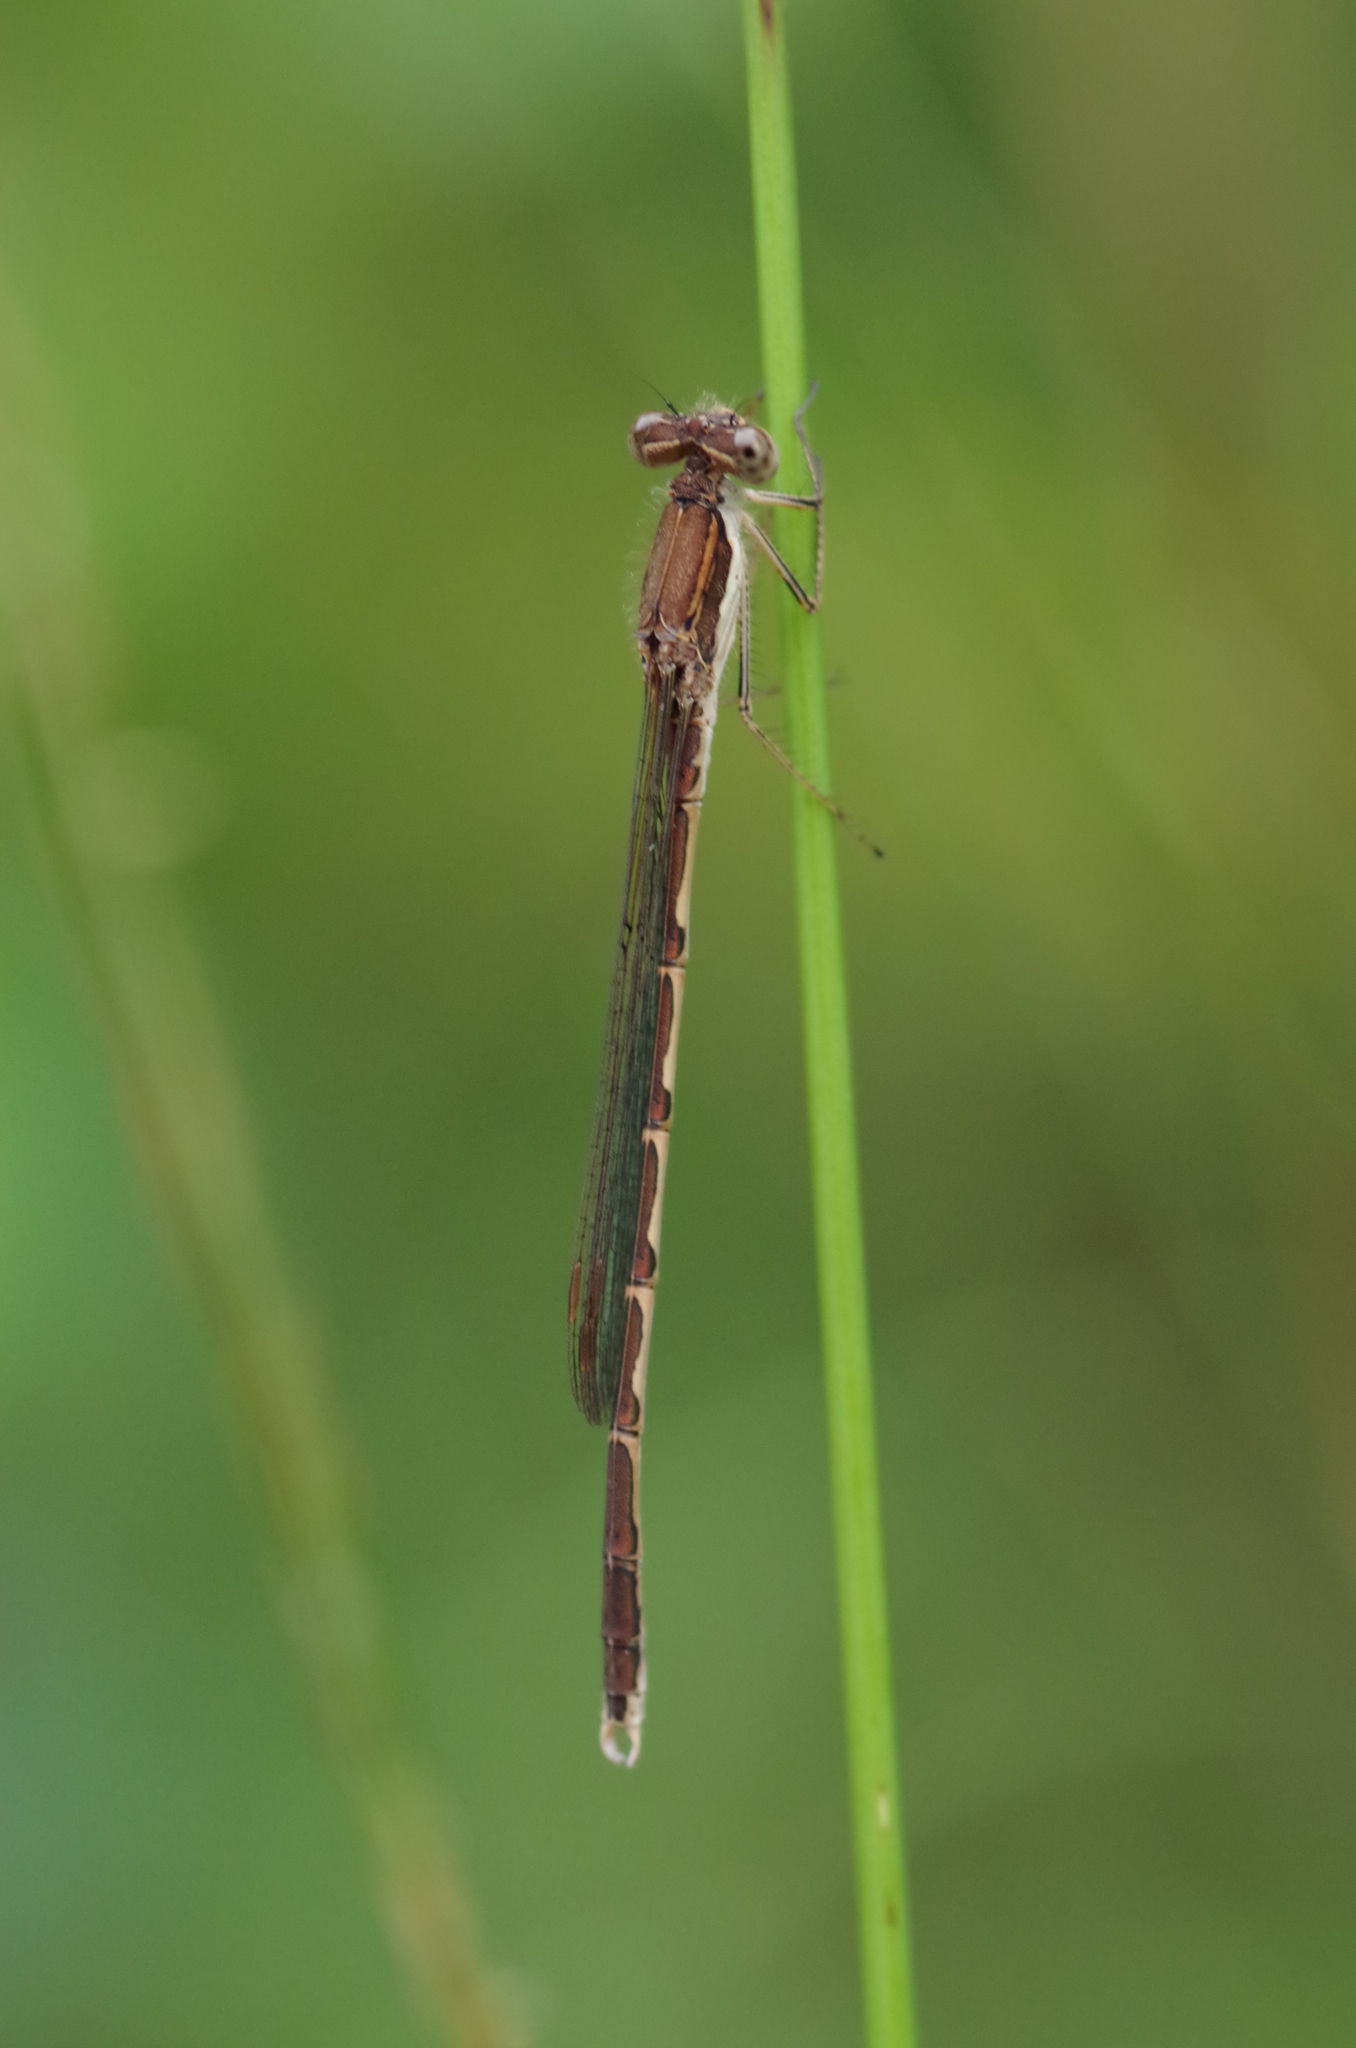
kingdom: Animalia
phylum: Arthropoda
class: Insecta
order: Odonata
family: Lestidae
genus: Sympecma
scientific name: Sympecma fusca
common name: Common winter damsel
